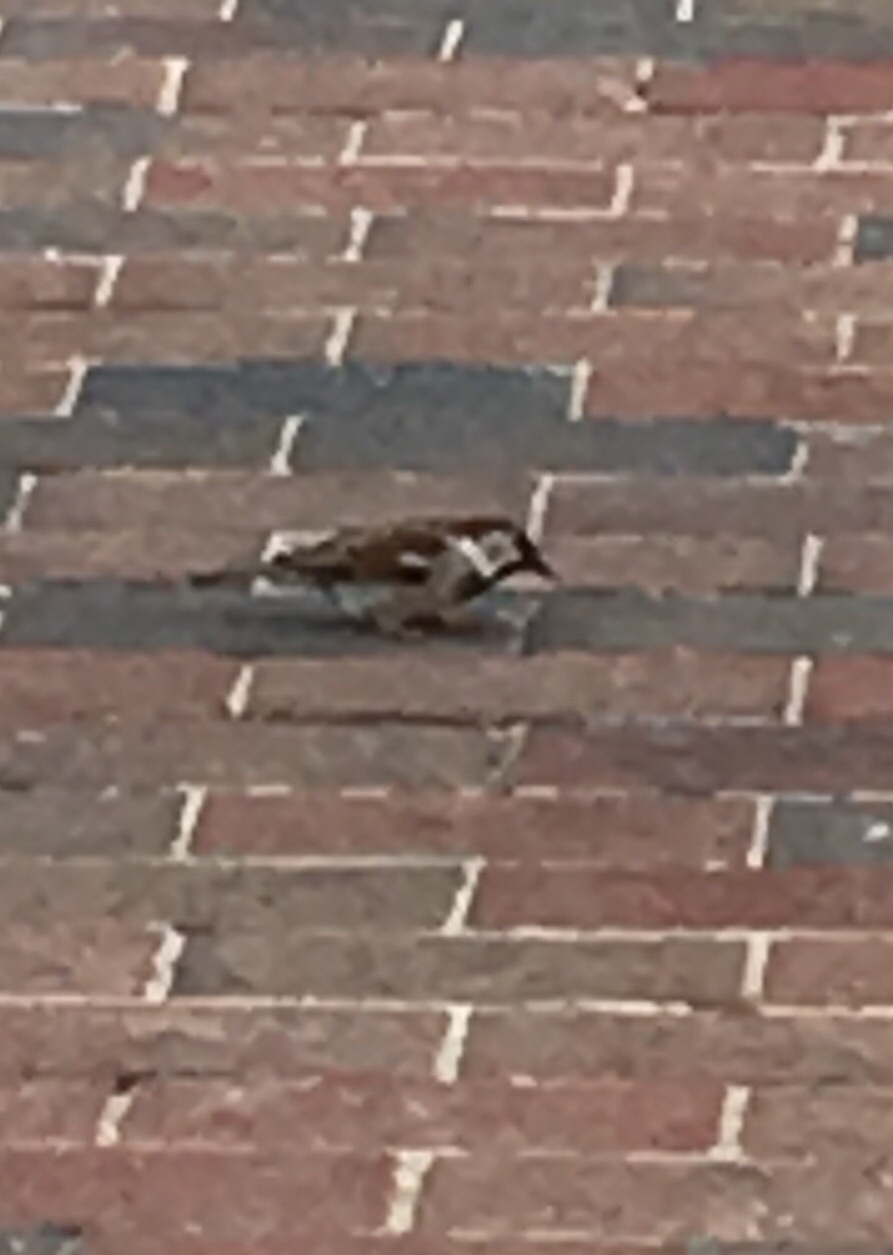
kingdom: Animalia
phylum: Chordata
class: Aves
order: Passeriformes
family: Passeridae
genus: Passer
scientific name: Passer domesticus
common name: House sparrow
